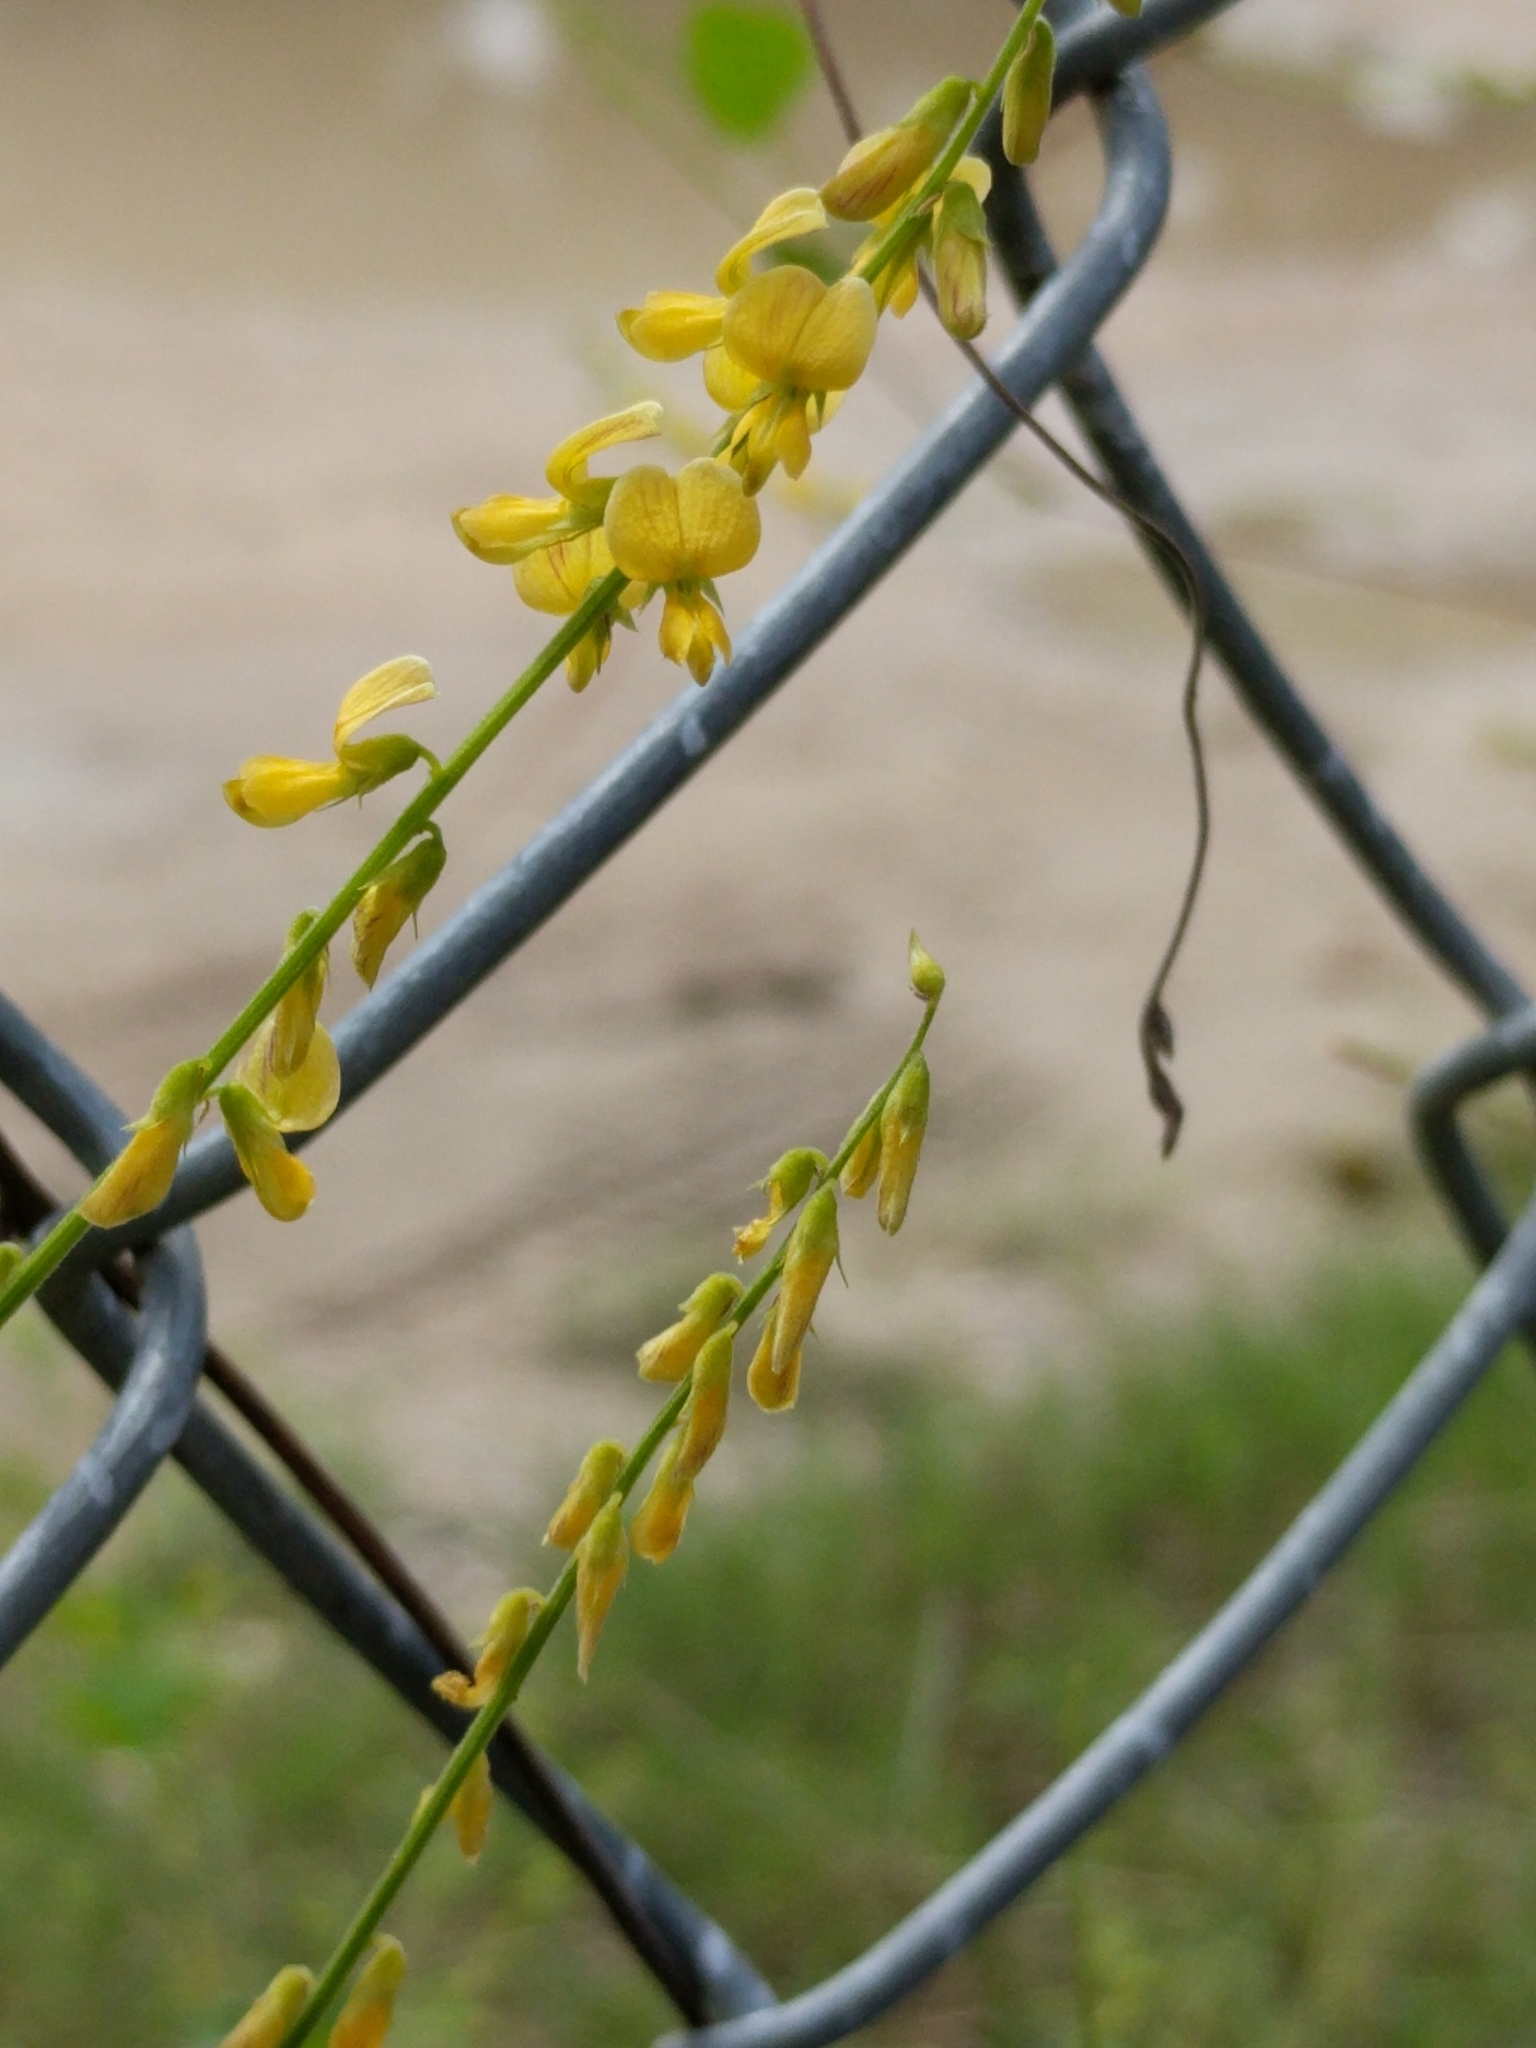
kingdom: Plantae
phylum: Tracheophyta
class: Magnoliopsida
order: Fabales
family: Fabaceae
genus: Rhynchosia
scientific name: Rhynchosia minima
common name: Least snoutbean
